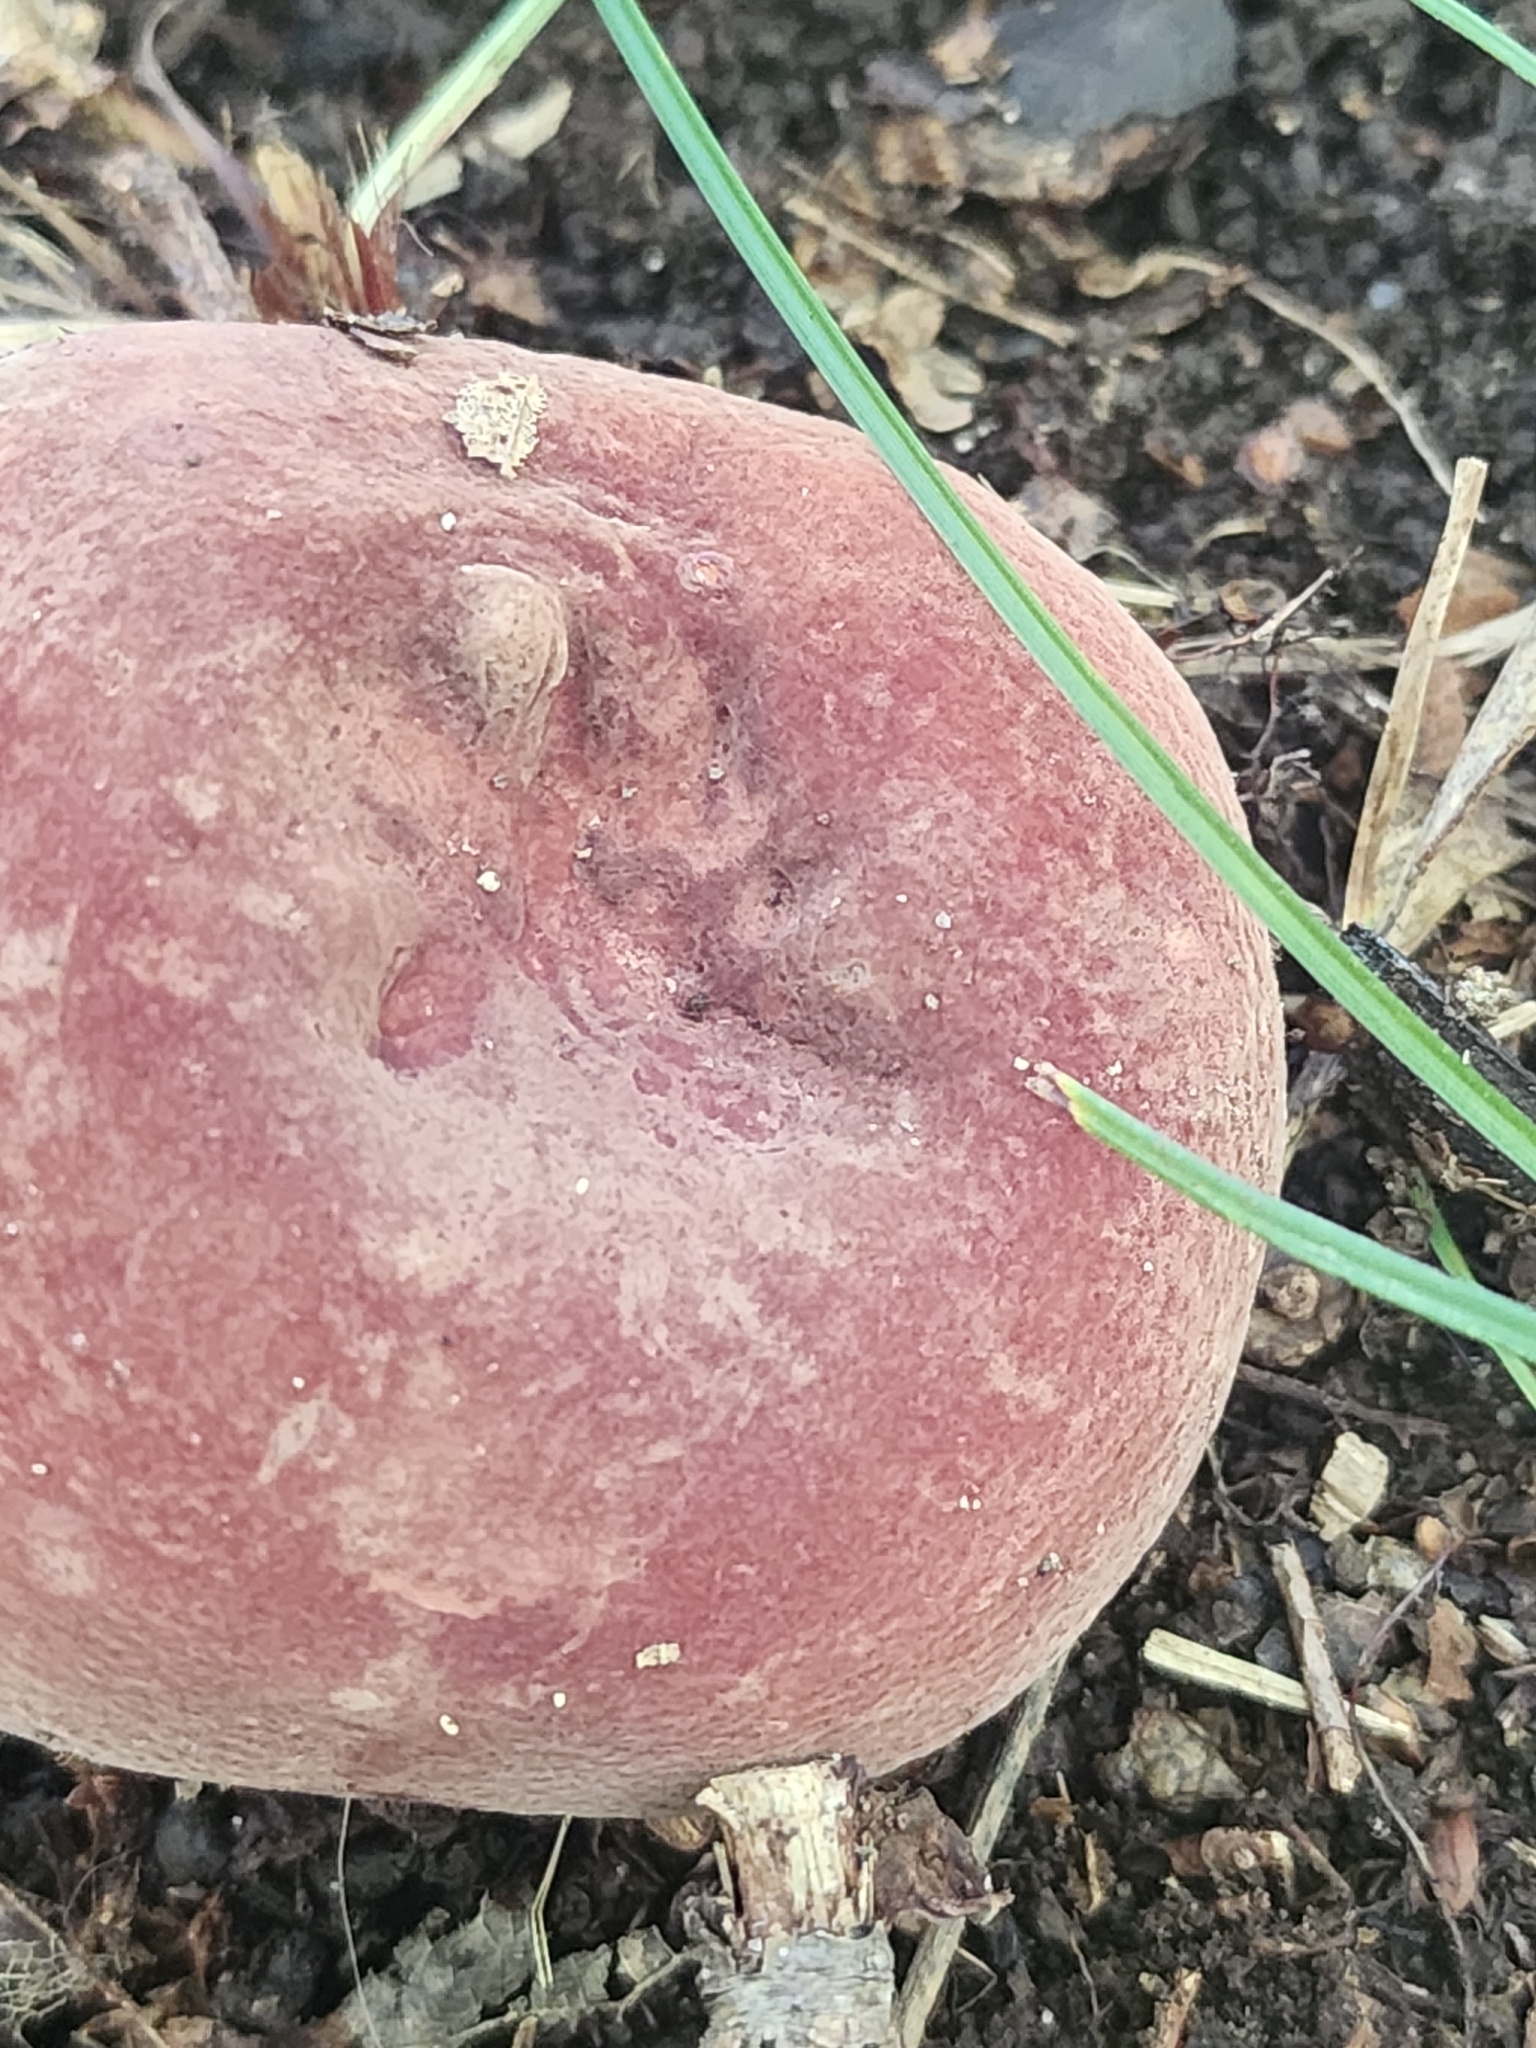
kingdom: Fungi
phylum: Basidiomycota
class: Agaricomycetes
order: Russulales
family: Russulaceae
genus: Lactarius
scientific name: Lactarius corrugis
